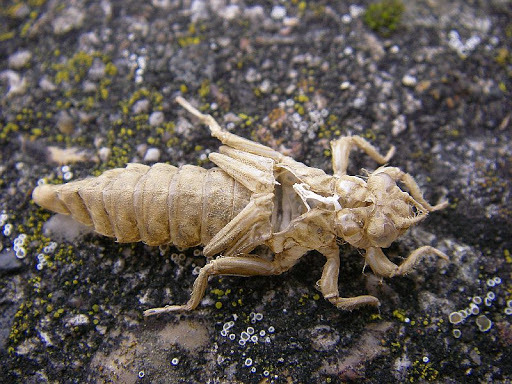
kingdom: Animalia
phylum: Arthropoda
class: Insecta
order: Odonata
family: Gomphidae
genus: Stylurus
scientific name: Stylurus flavipes
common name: River clubtail
